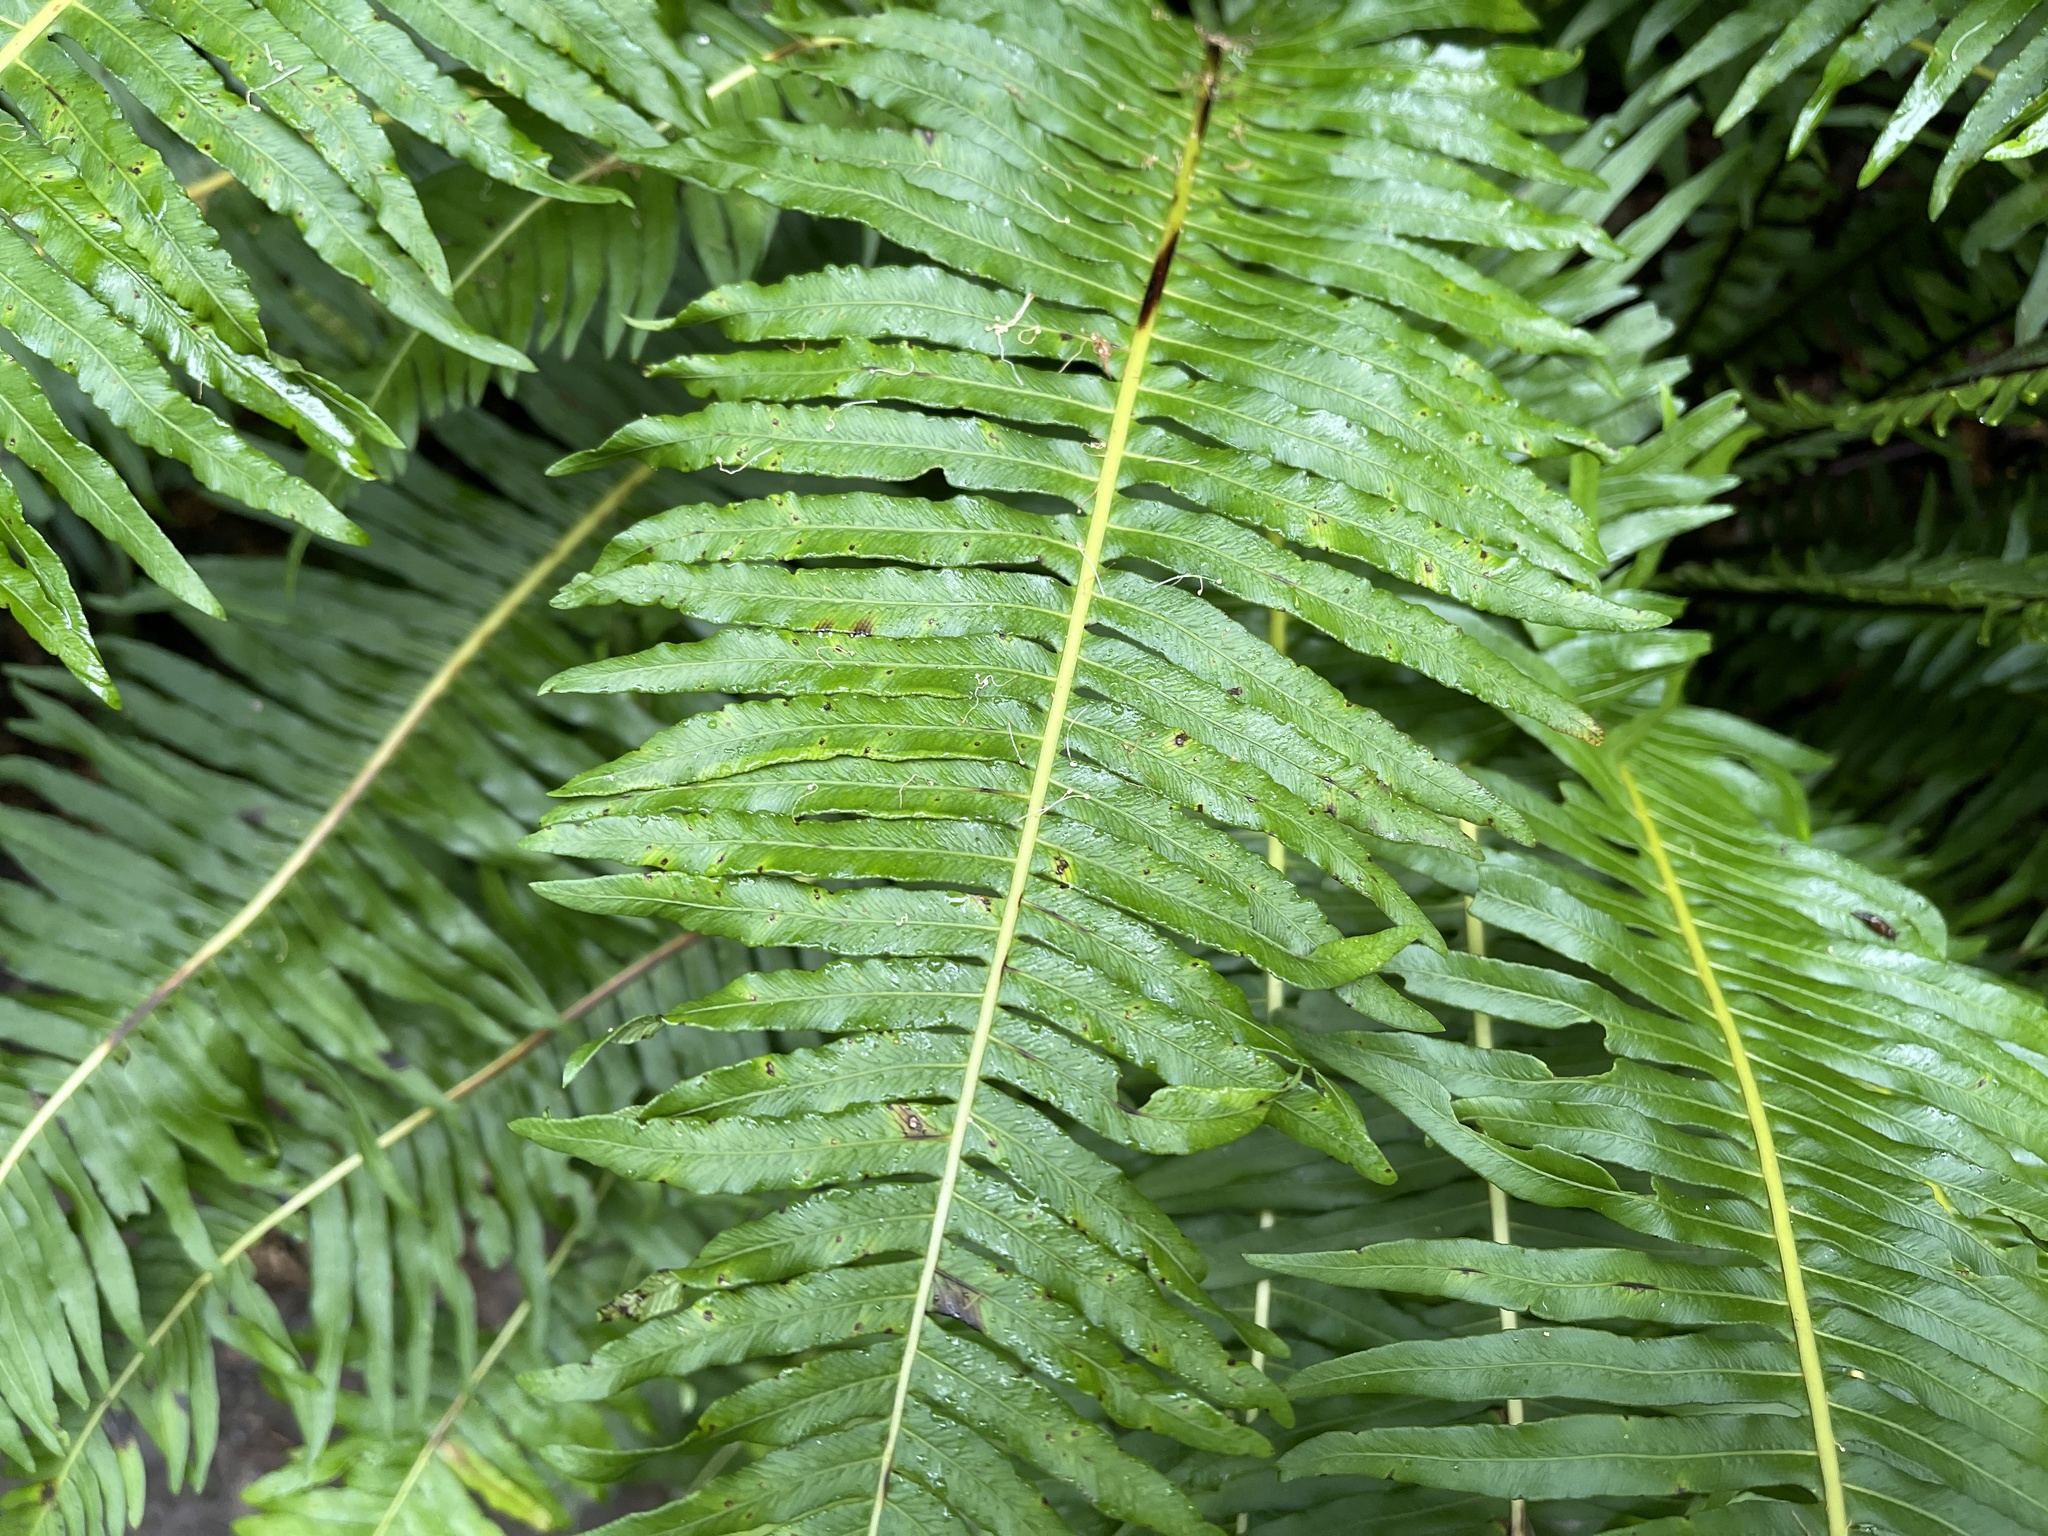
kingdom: Plantae
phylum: Tracheophyta
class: Polypodiopsida
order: Polypodiales
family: Blechnaceae
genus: Lomaria
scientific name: Lomaria nuda
